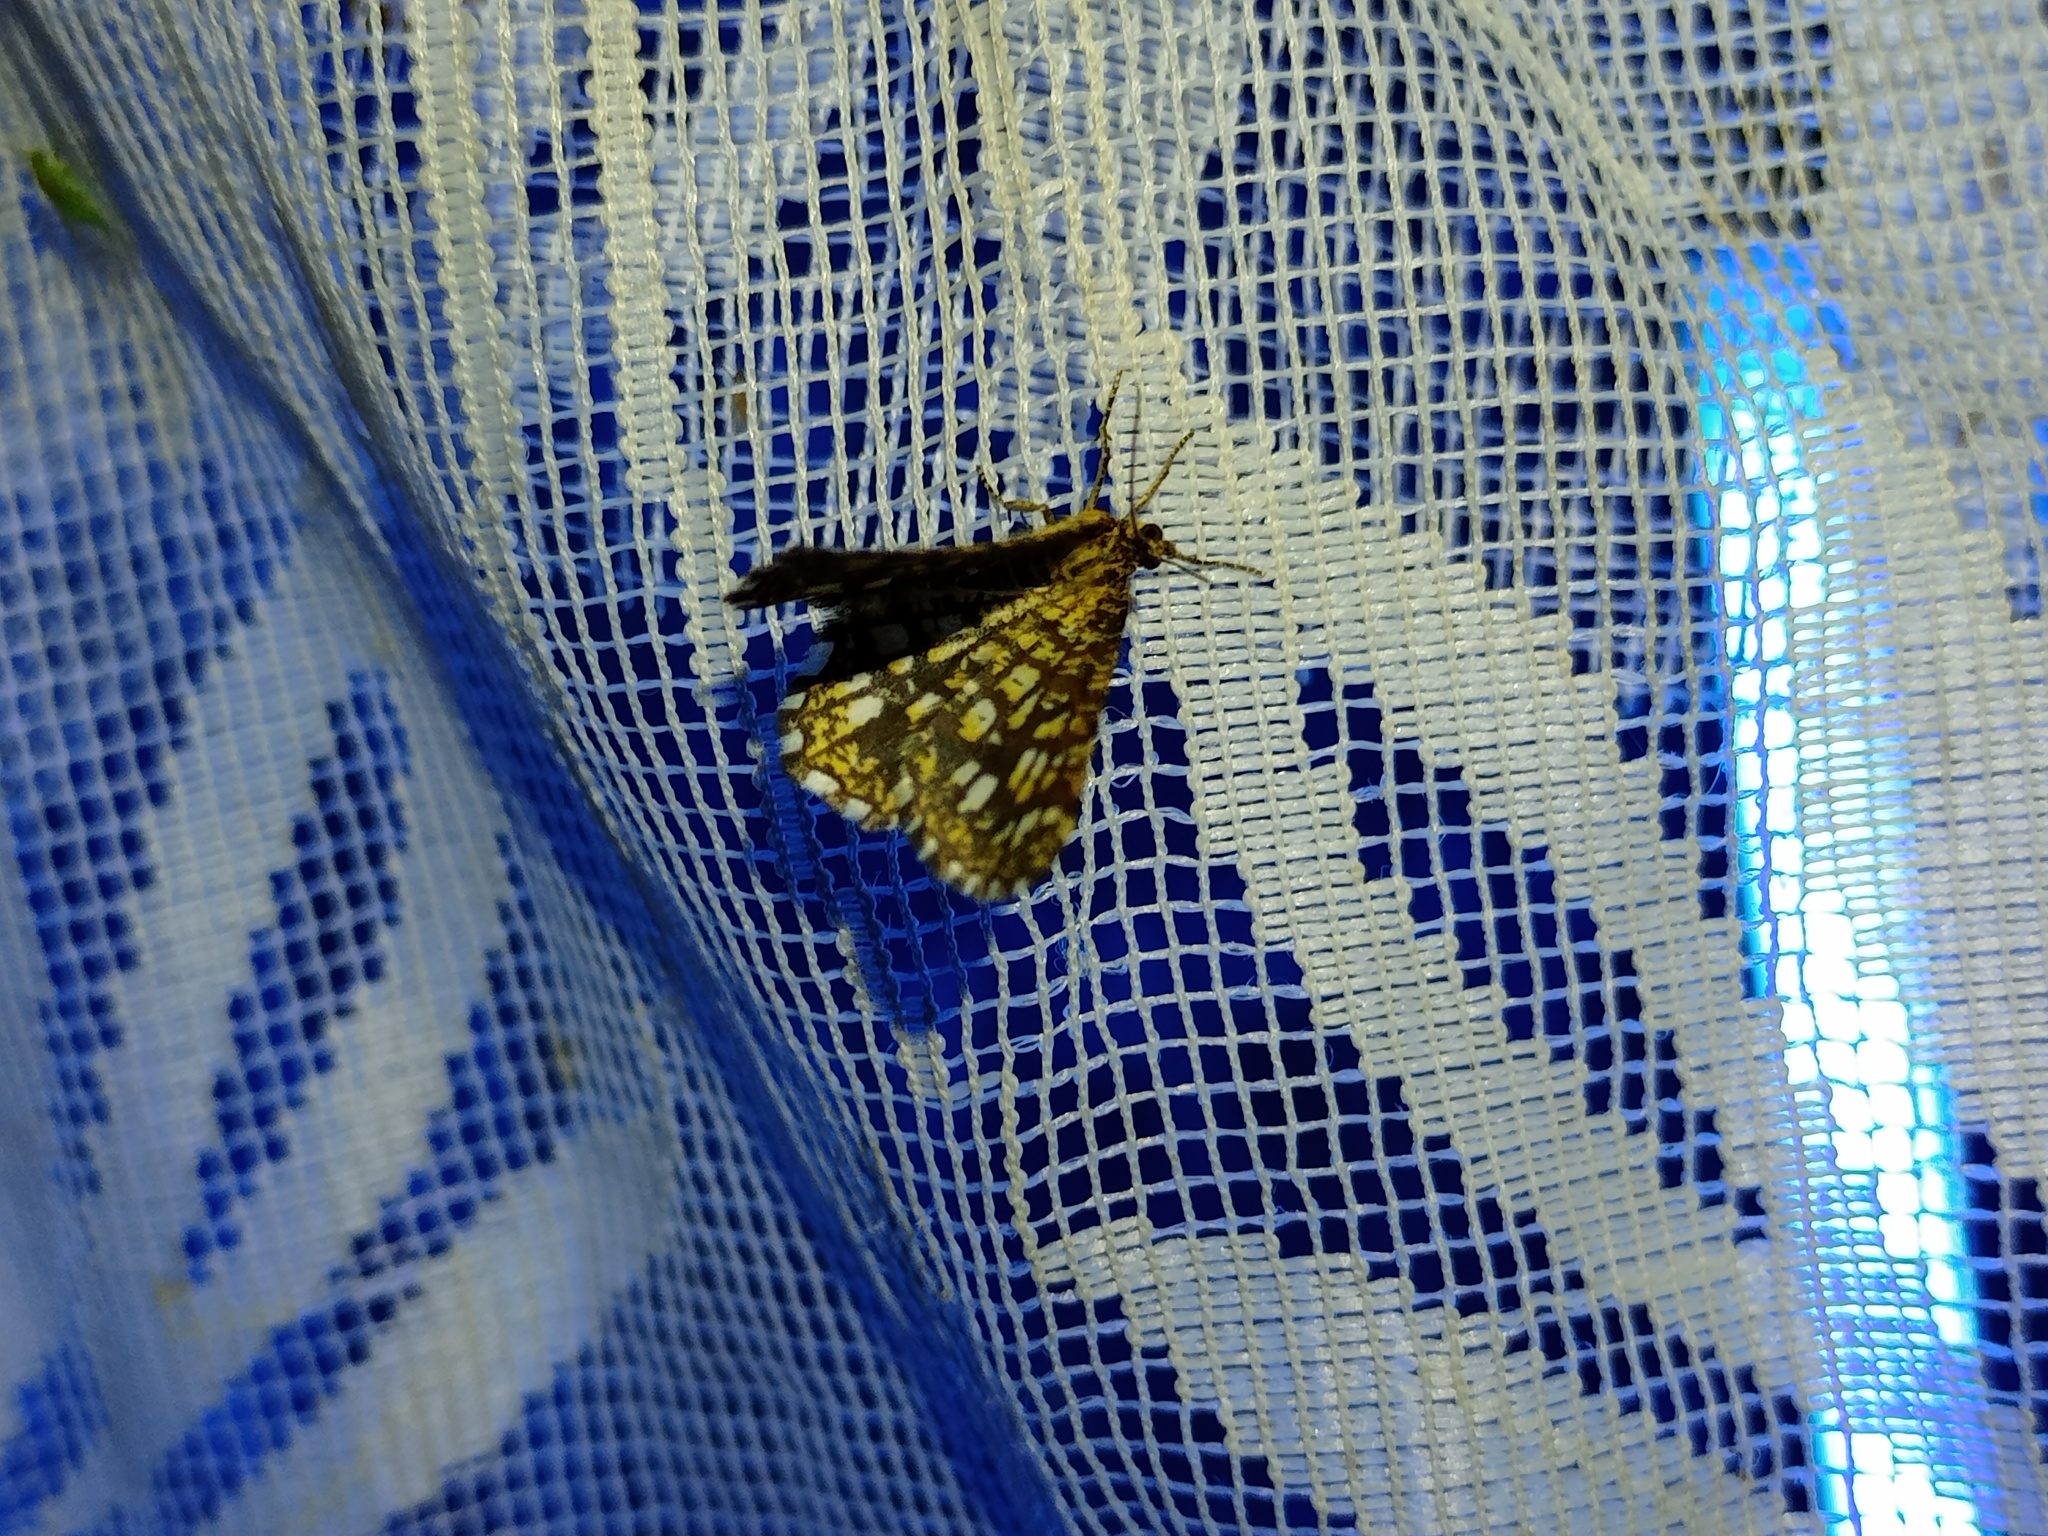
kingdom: Animalia
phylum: Arthropoda
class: Insecta
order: Lepidoptera
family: Geometridae
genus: Chiasmia
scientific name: Chiasmia clathrata
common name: Latticed heath
